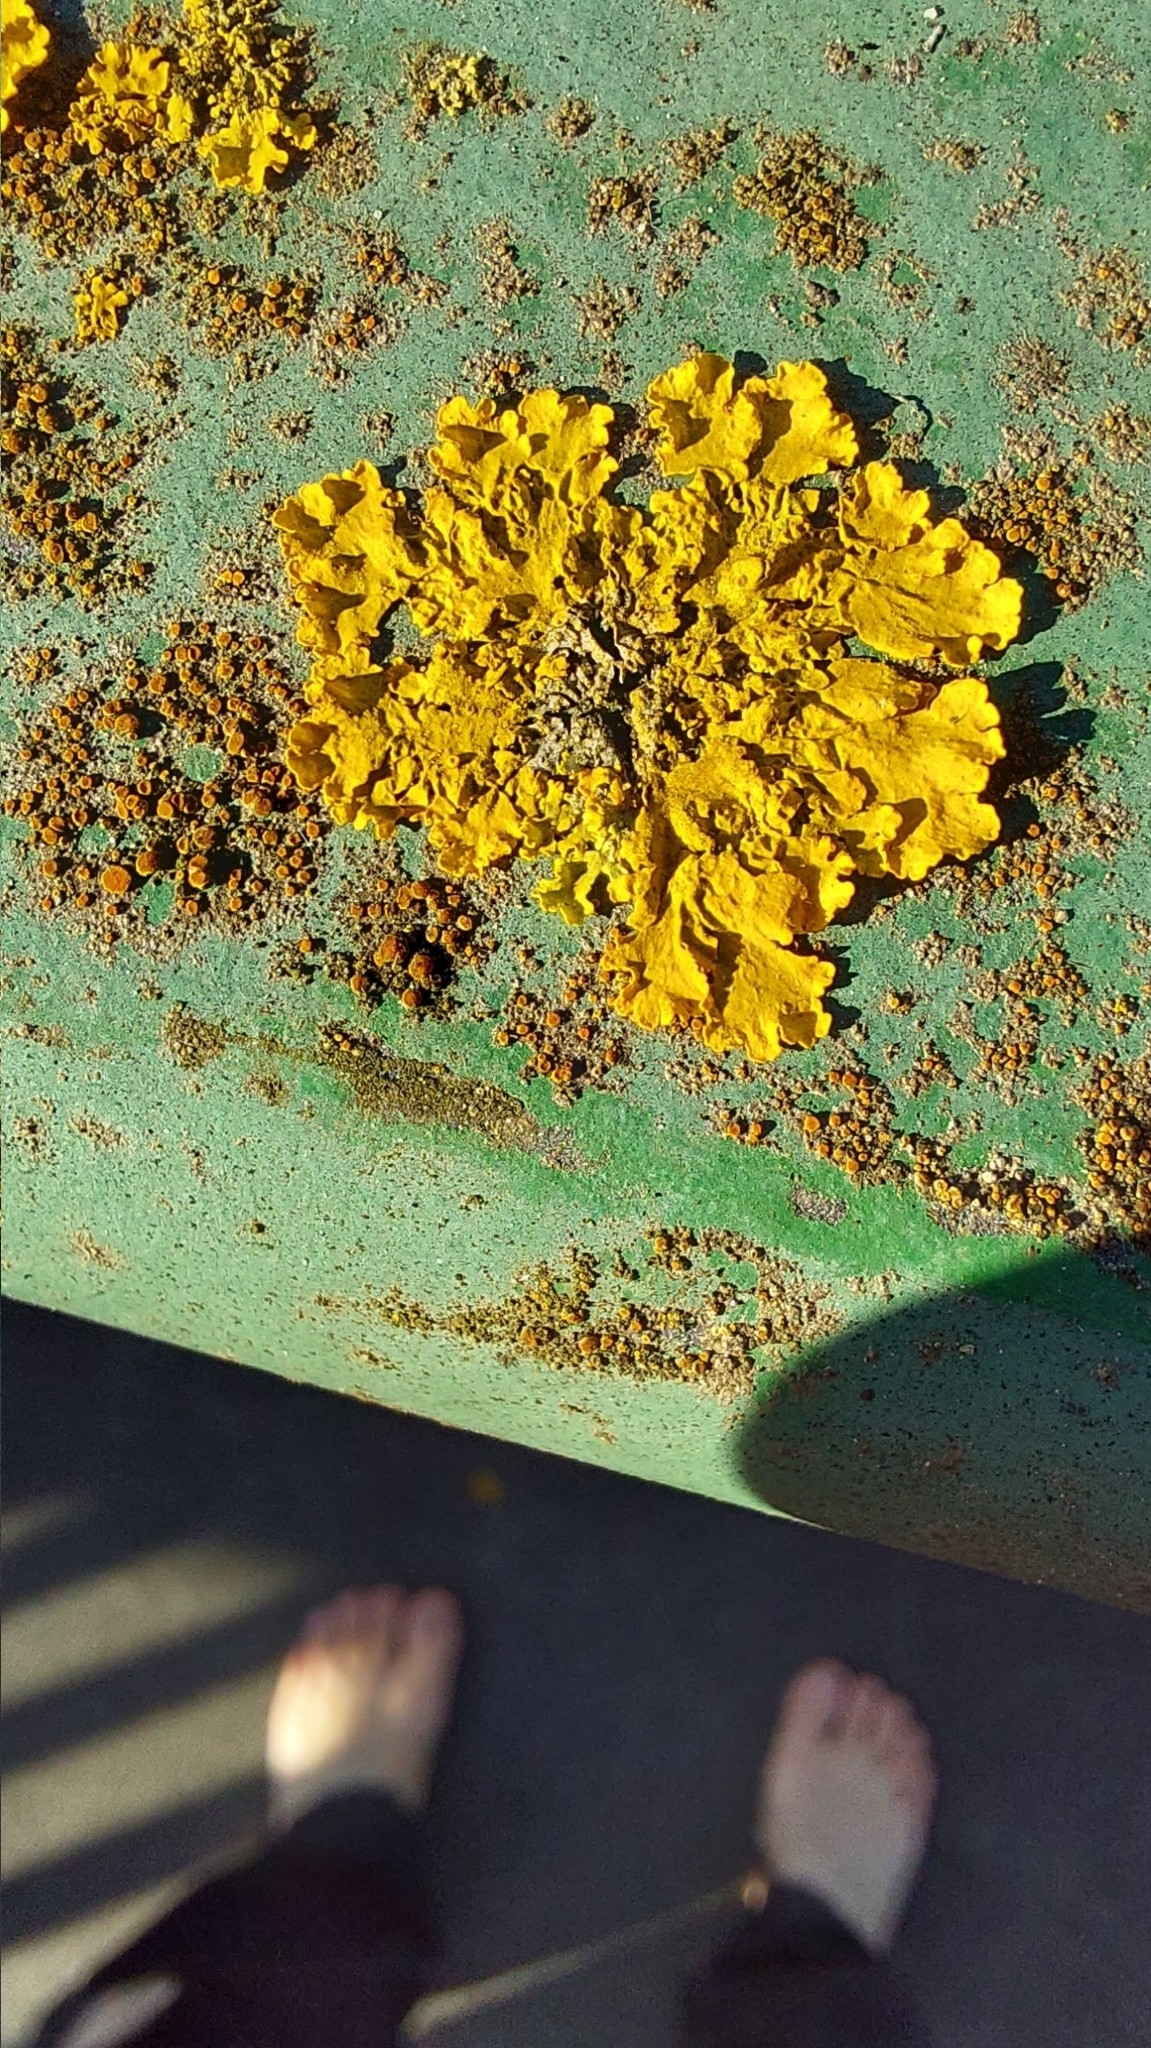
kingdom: Fungi
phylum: Ascomycota
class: Lecanoromycetes
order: Teloschistales
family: Teloschistaceae
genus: Xanthoria
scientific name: Xanthoria parietina
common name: Common orange lichen
